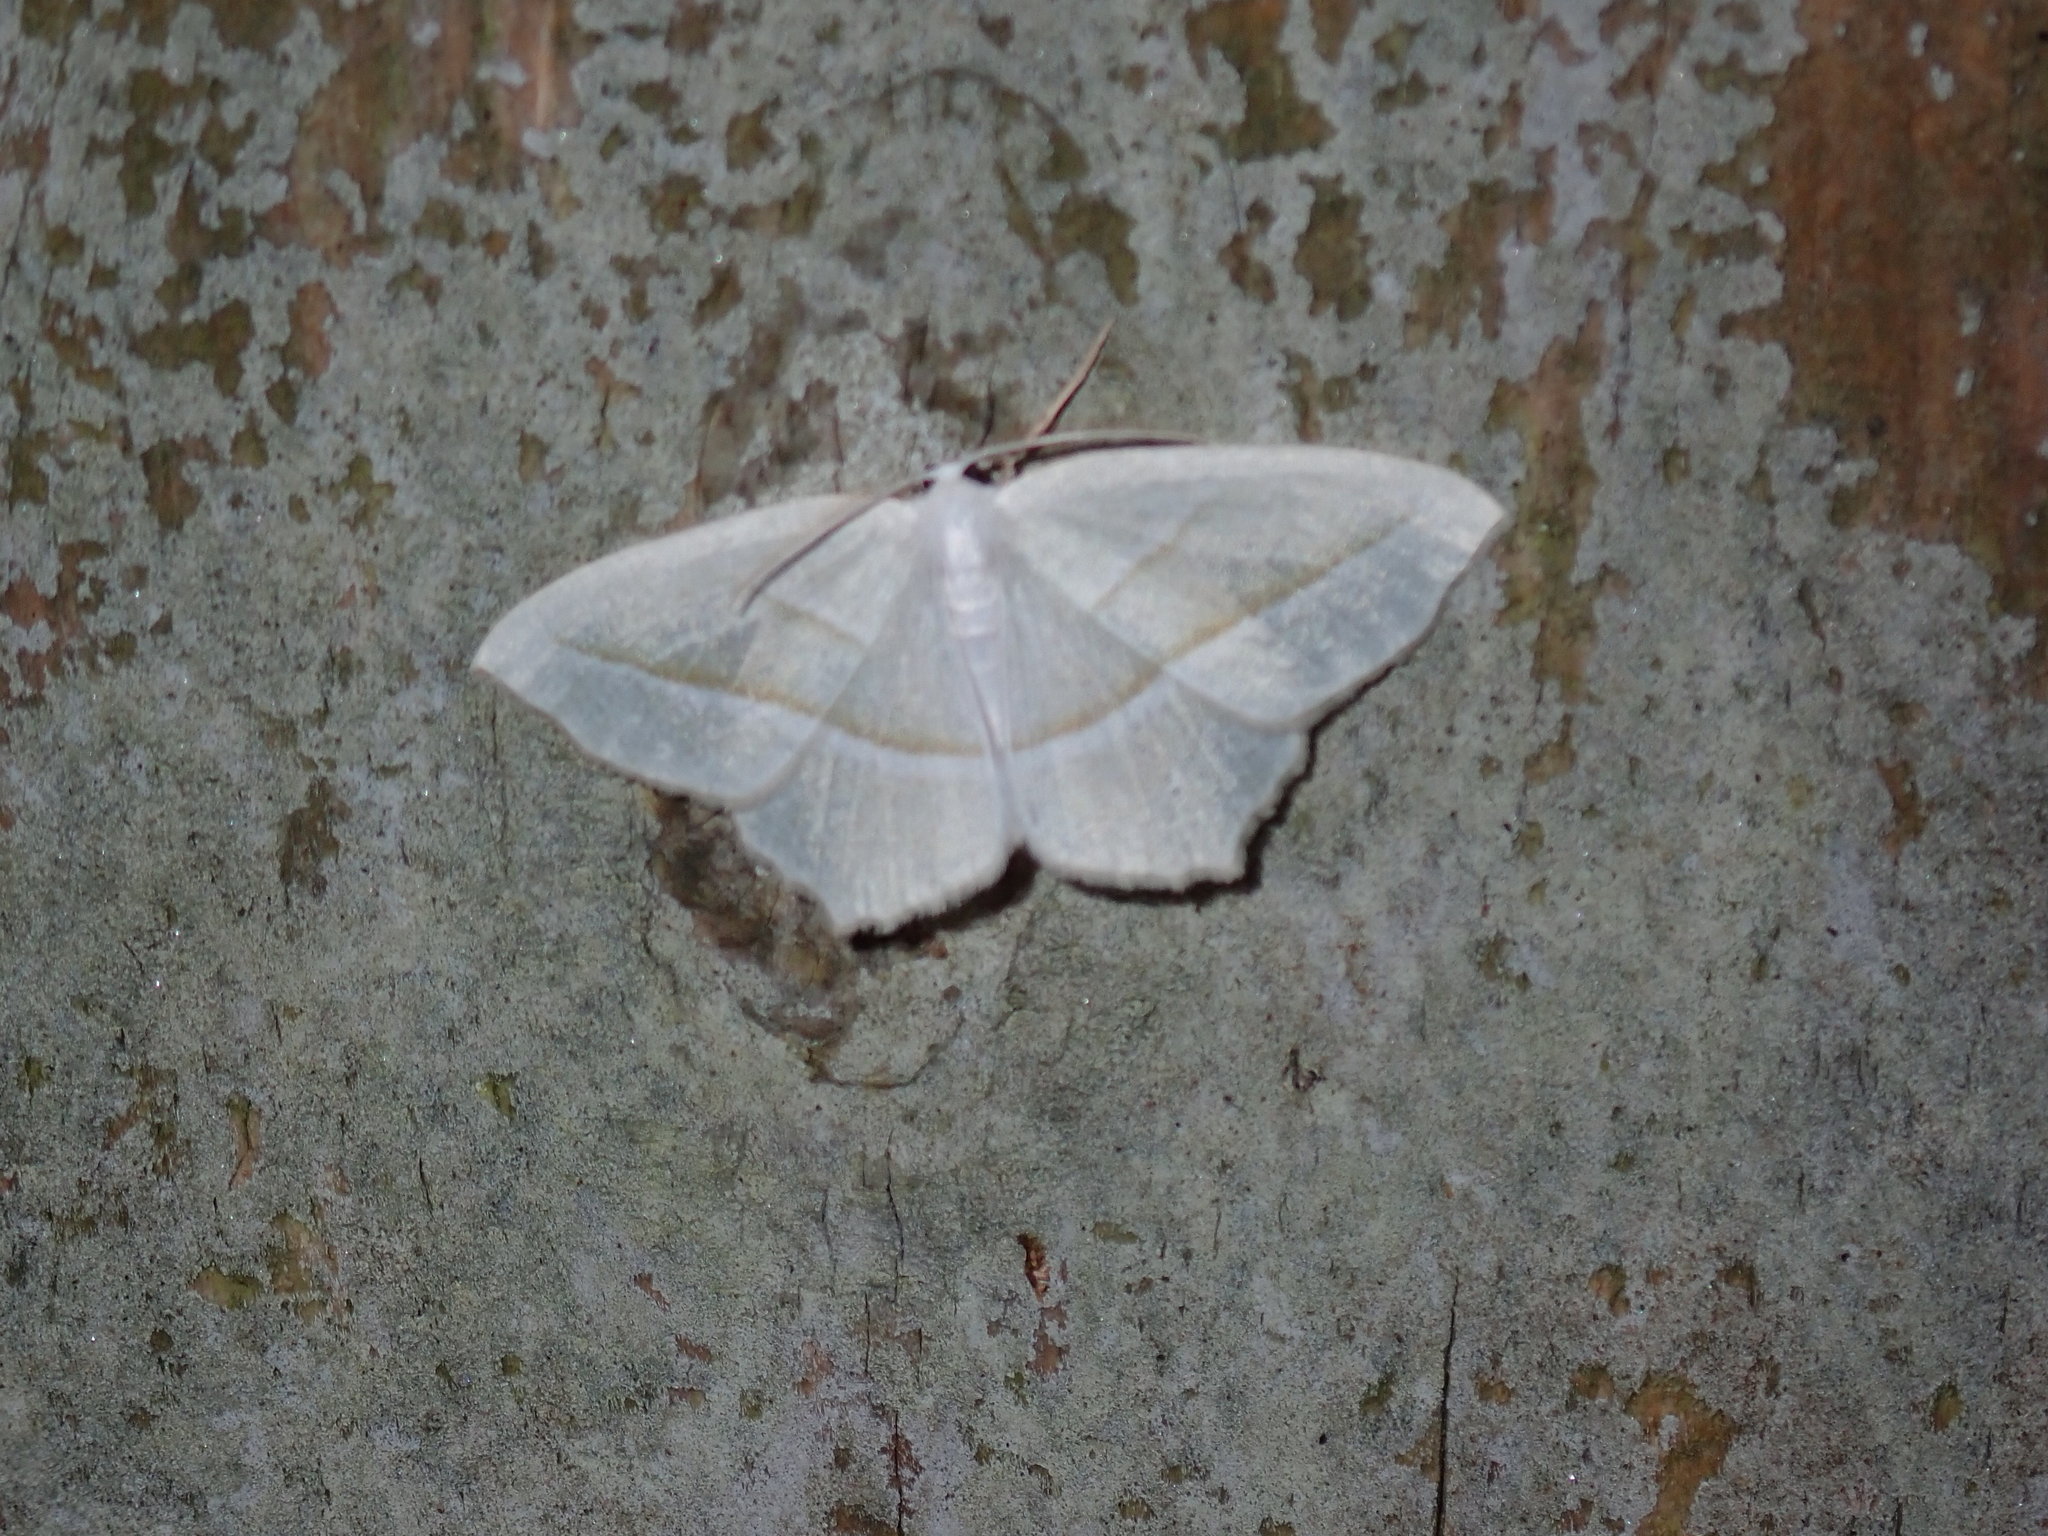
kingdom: Animalia
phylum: Arthropoda
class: Insecta
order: Lepidoptera
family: Geometridae
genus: Campaea
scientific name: Campaea perlata
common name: Fringed looper
